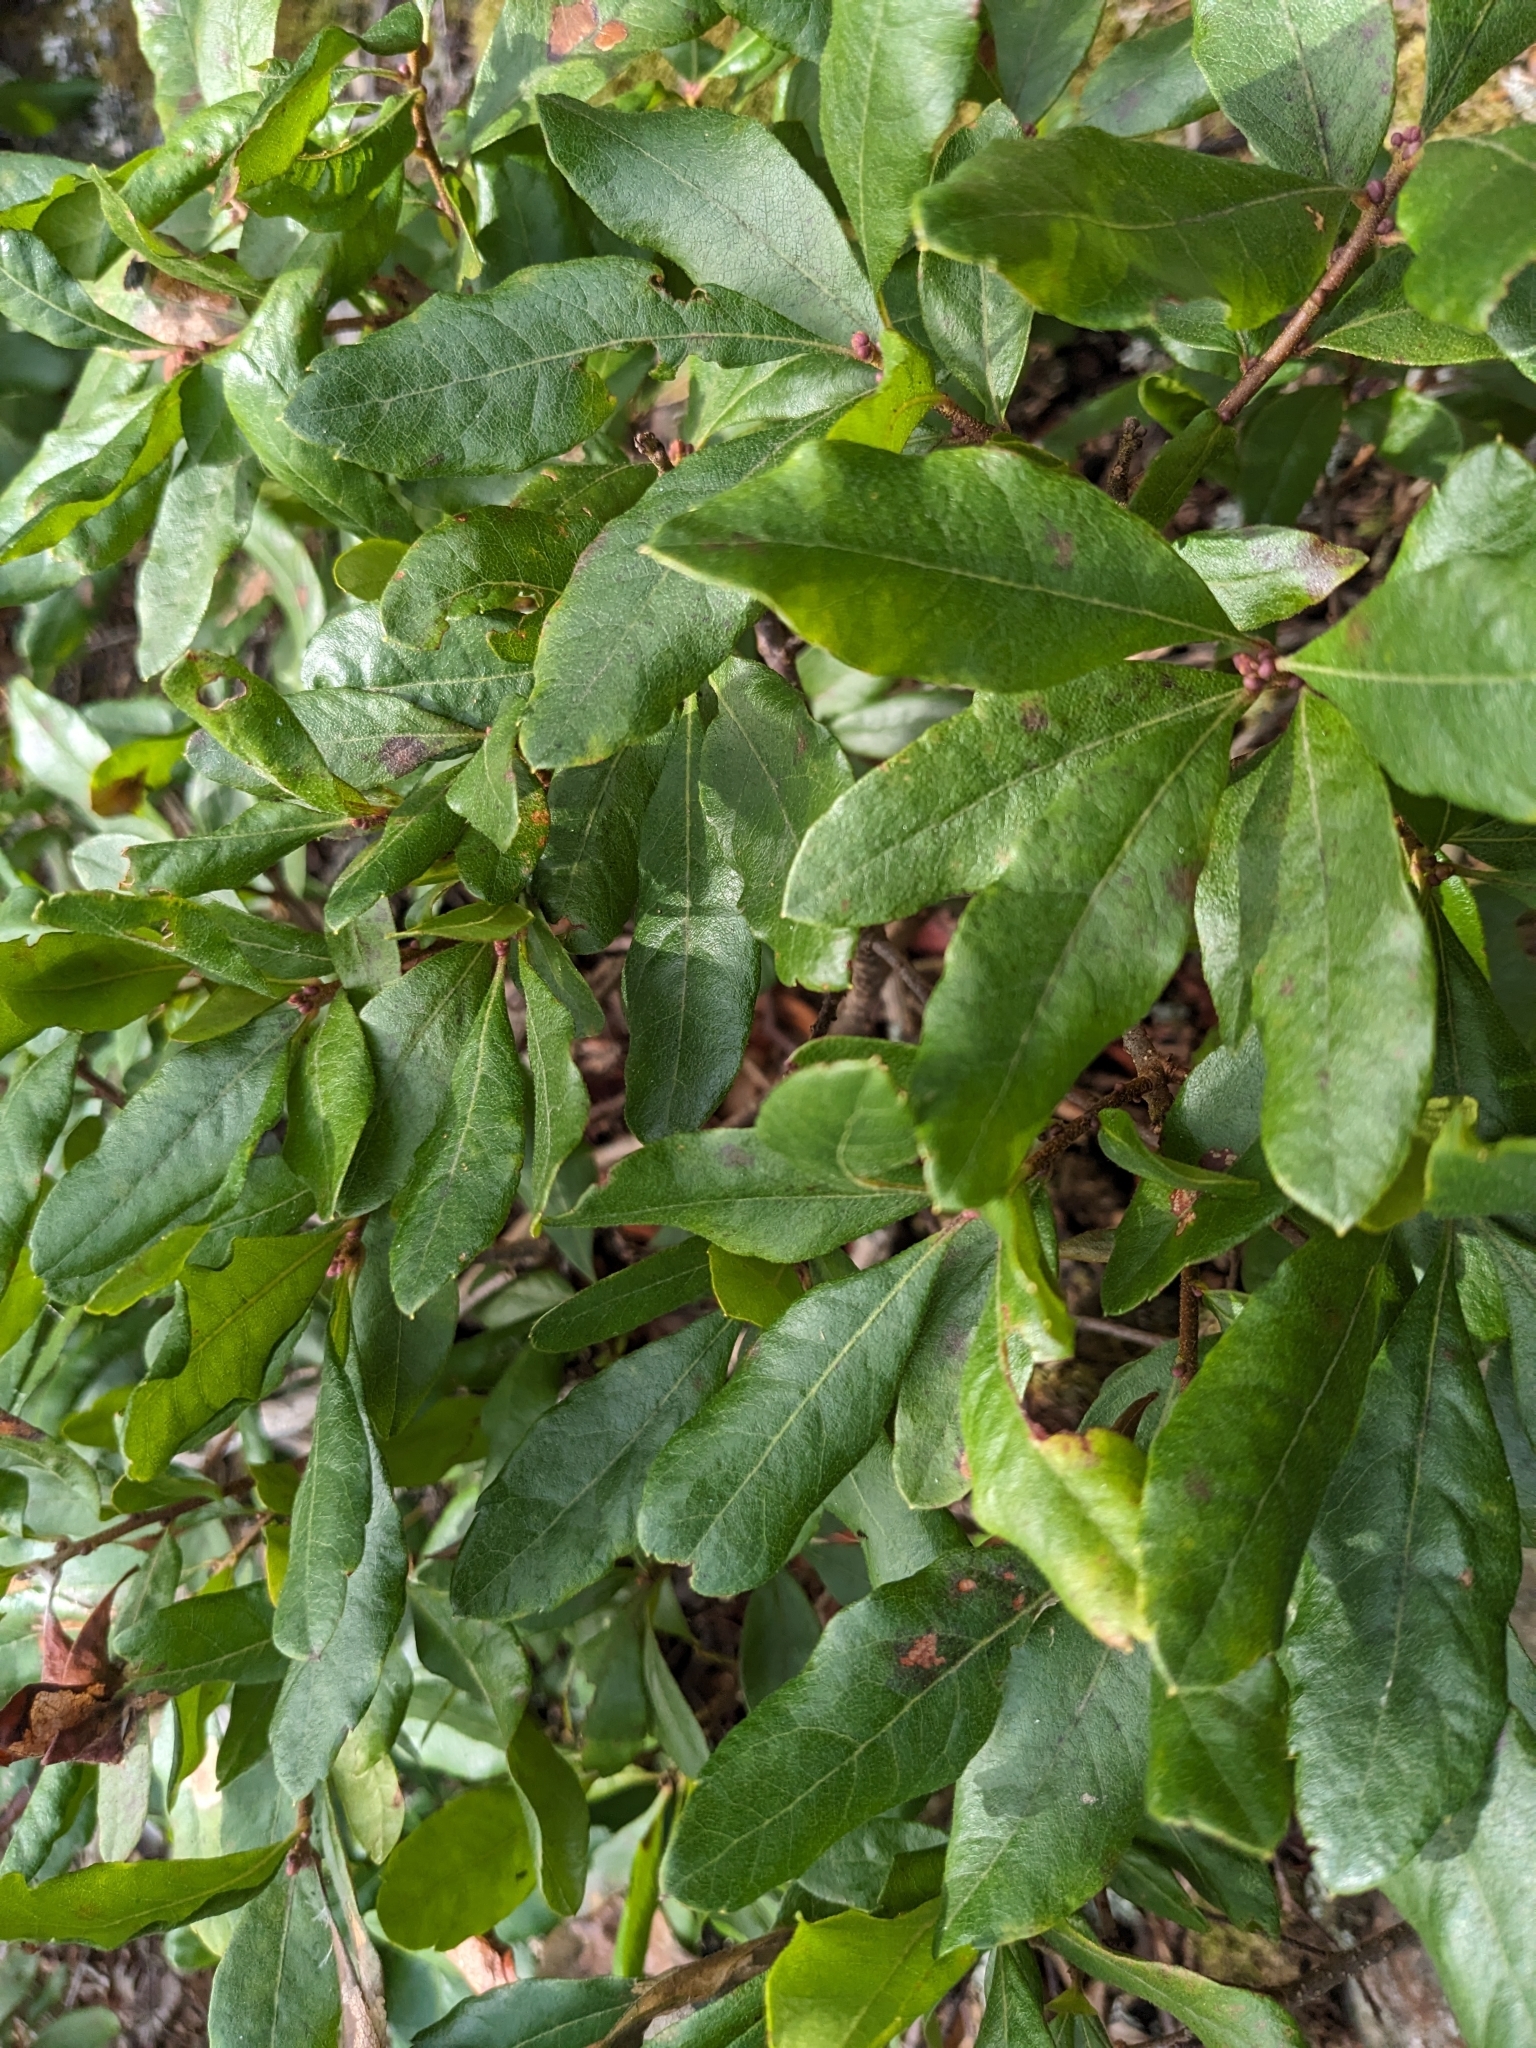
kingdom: Plantae
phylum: Tracheophyta
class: Magnoliopsida
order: Fagales
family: Myricaceae
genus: Morella
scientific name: Morella pensylvanica
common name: Northern bayberry
